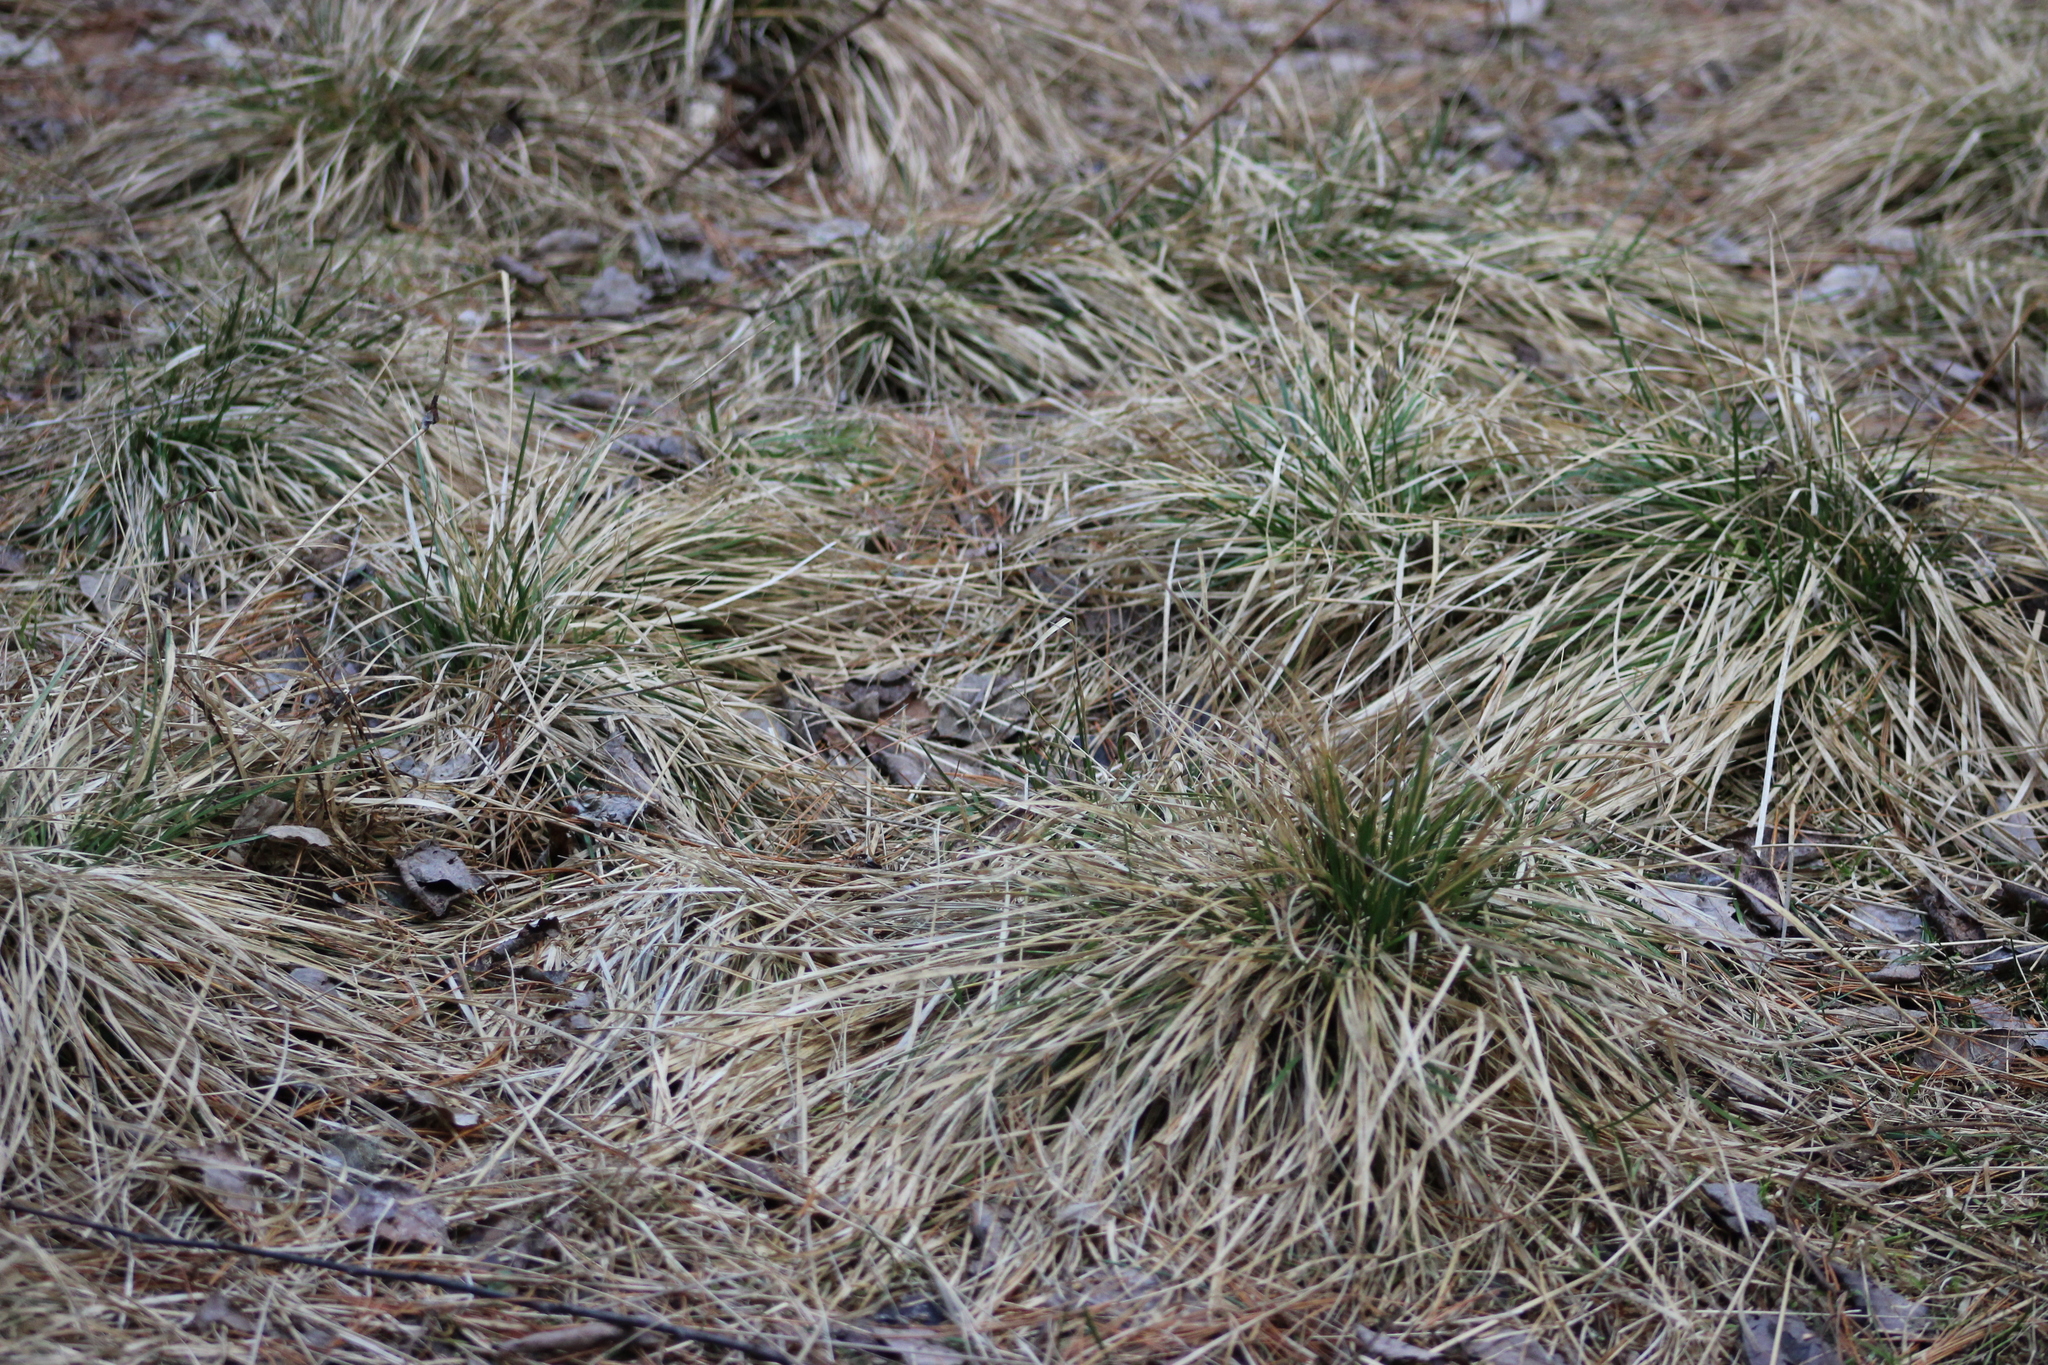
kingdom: Plantae
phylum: Tracheophyta
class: Liliopsida
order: Poales
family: Poaceae
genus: Deschampsia
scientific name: Deschampsia cespitosa
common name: Tufted hair-grass
